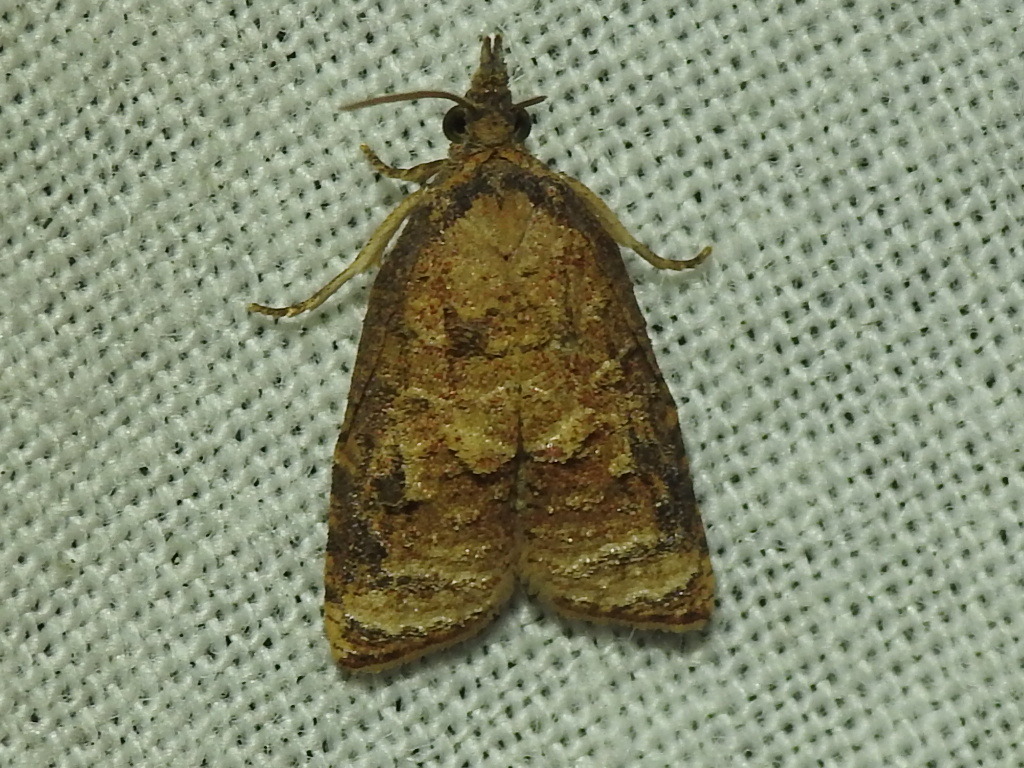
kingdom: Animalia
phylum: Arthropoda
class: Insecta
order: Lepidoptera
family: Tortricidae
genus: Platynota
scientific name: Platynota rostrana
